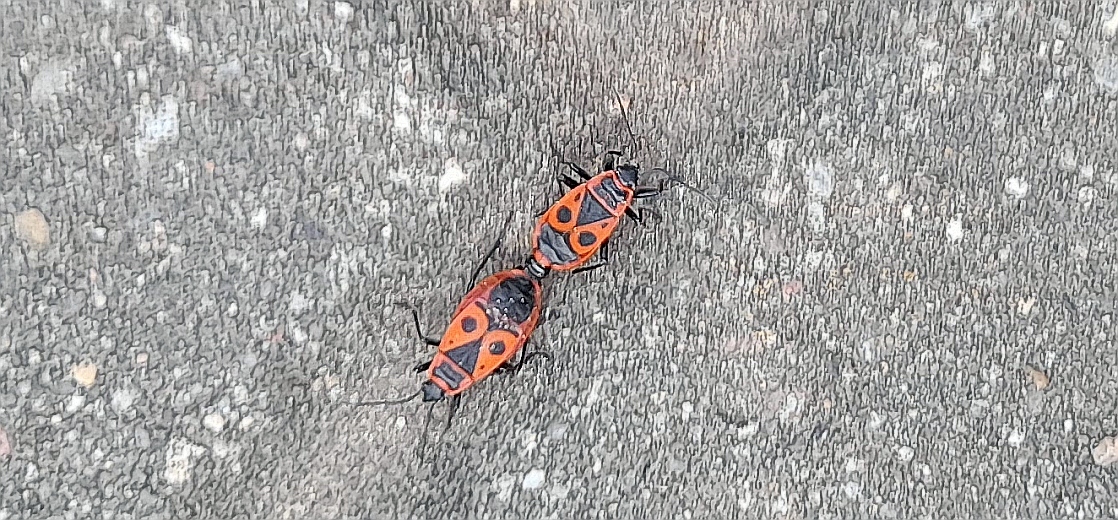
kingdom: Animalia
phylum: Arthropoda
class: Insecta
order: Hemiptera
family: Pyrrhocoridae
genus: Pyrrhocoris
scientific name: Pyrrhocoris apterus
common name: Firebug
